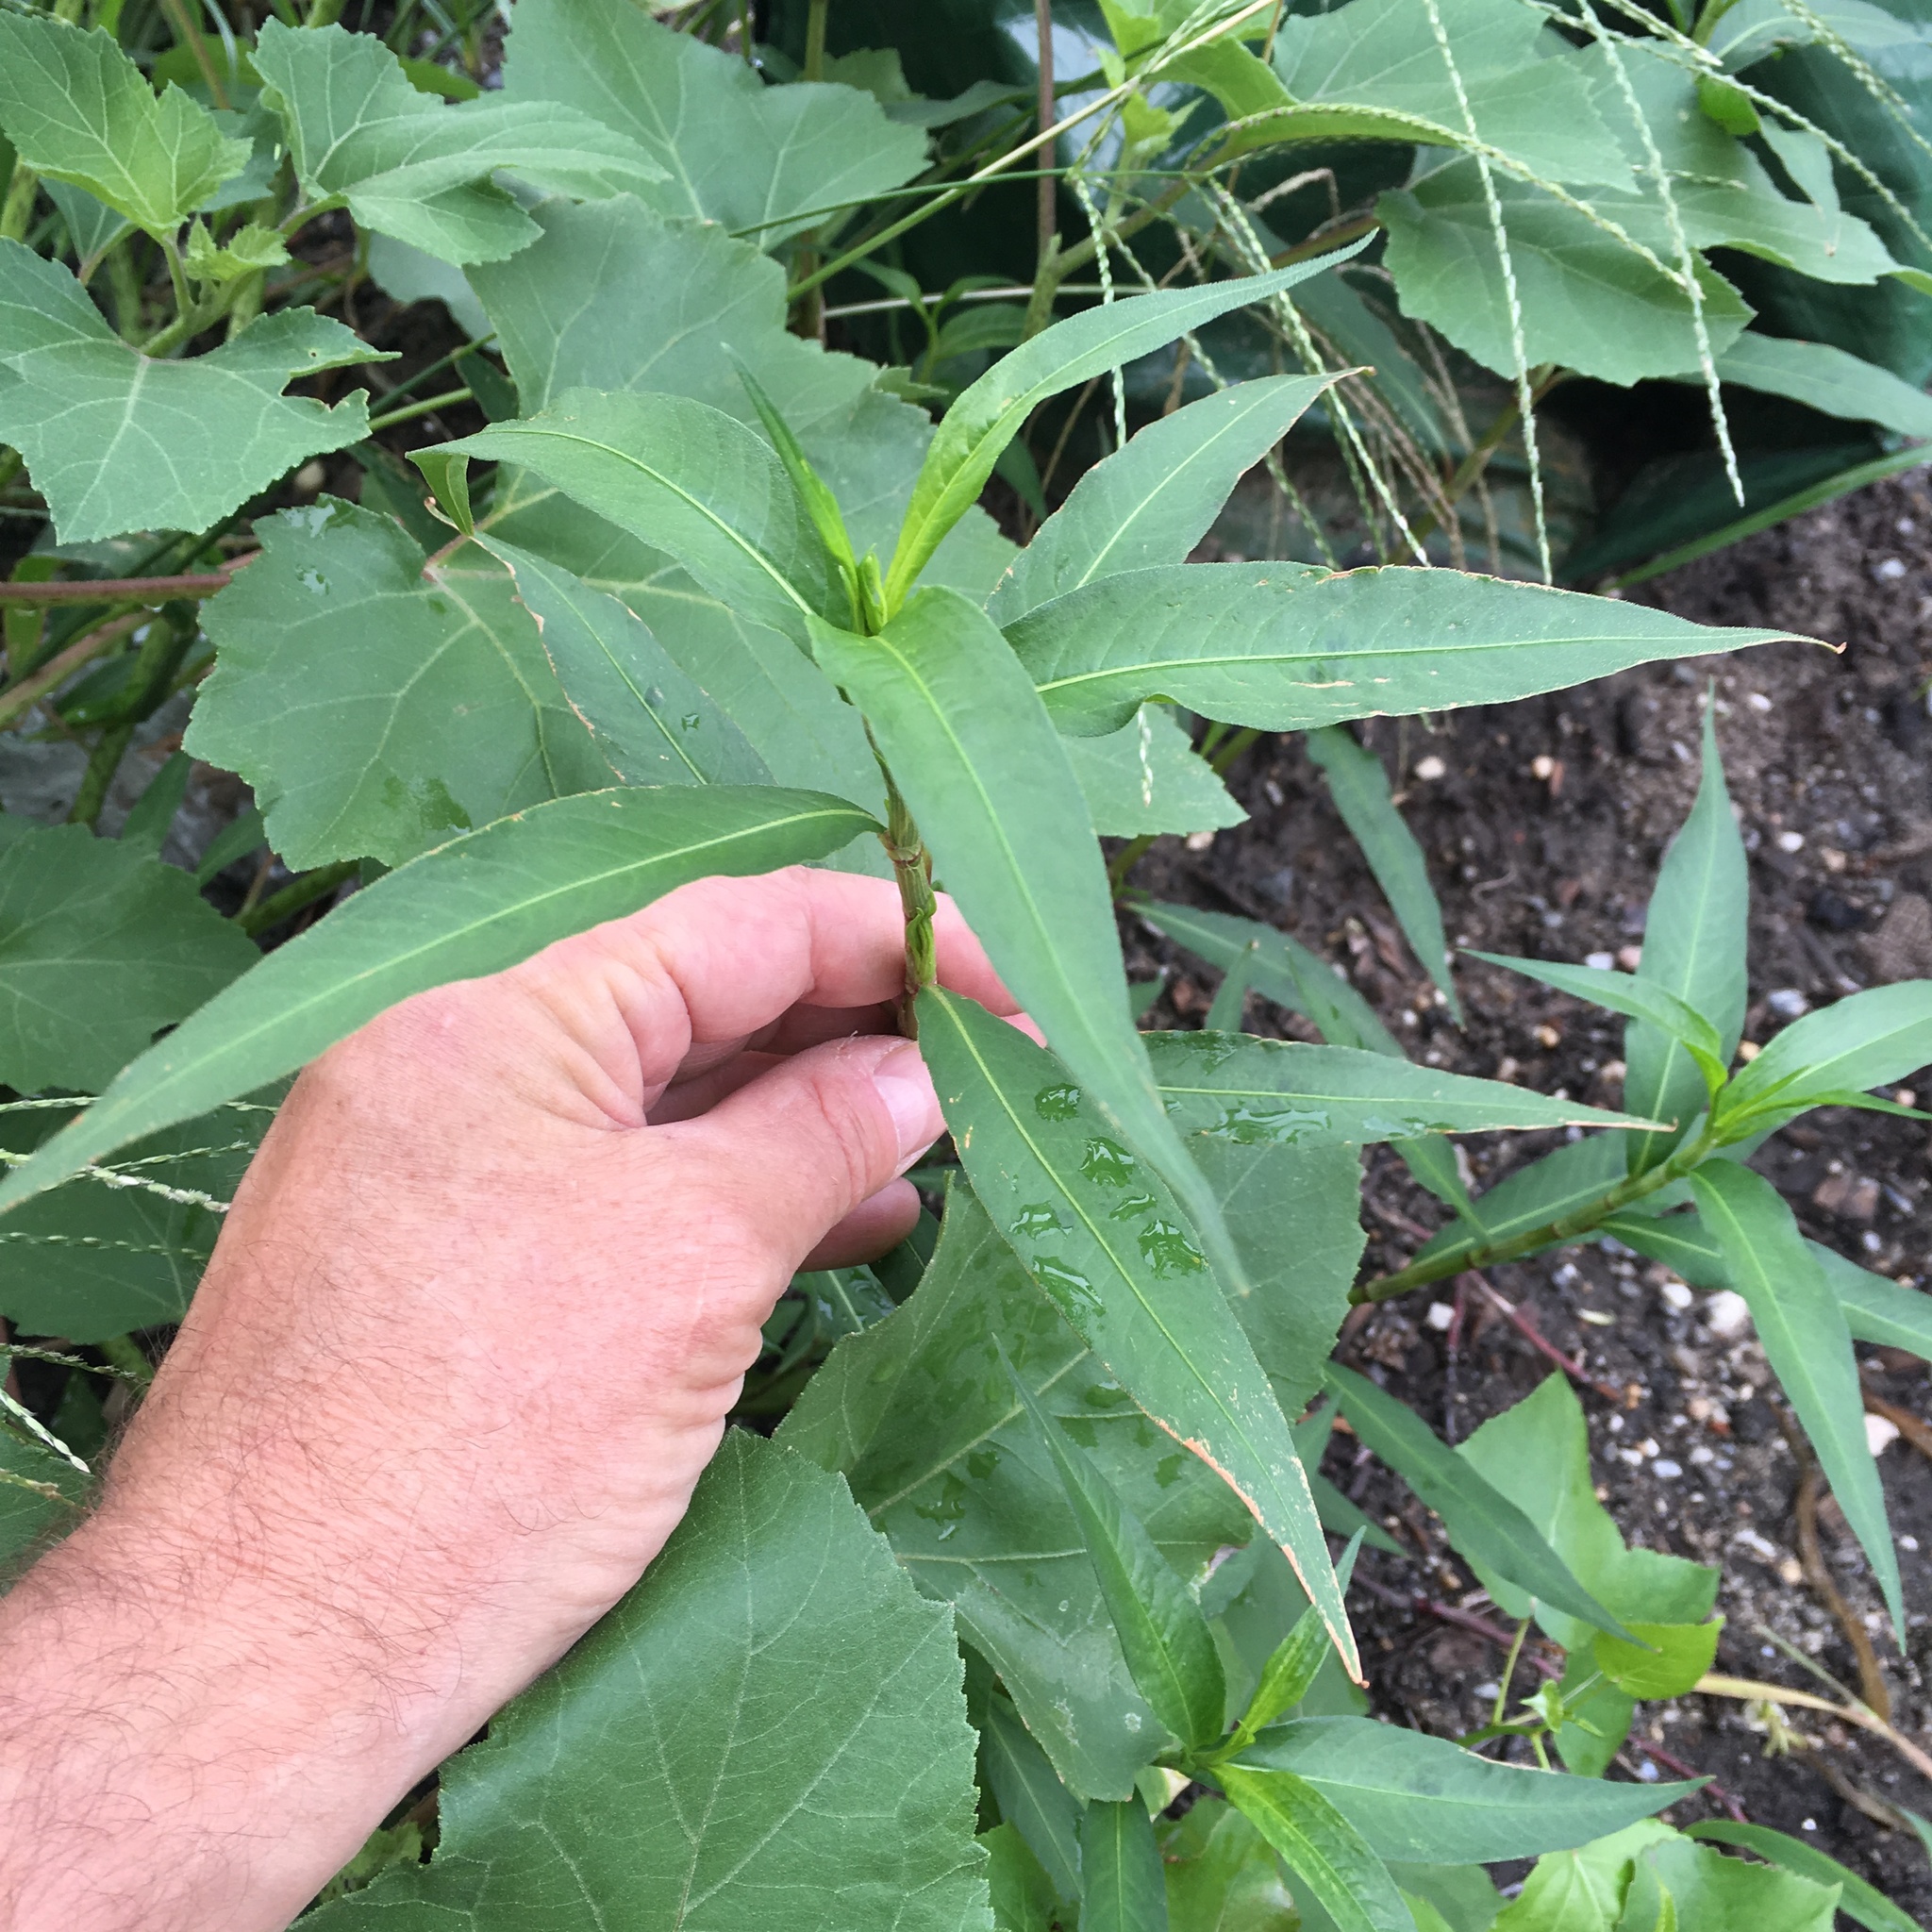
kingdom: Plantae
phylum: Tracheophyta
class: Magnoliopsida
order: Caryophyllales
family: Polygonaceae
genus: Persicaria
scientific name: Persicaria extremiorientalis
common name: Far-eastern smartweed
